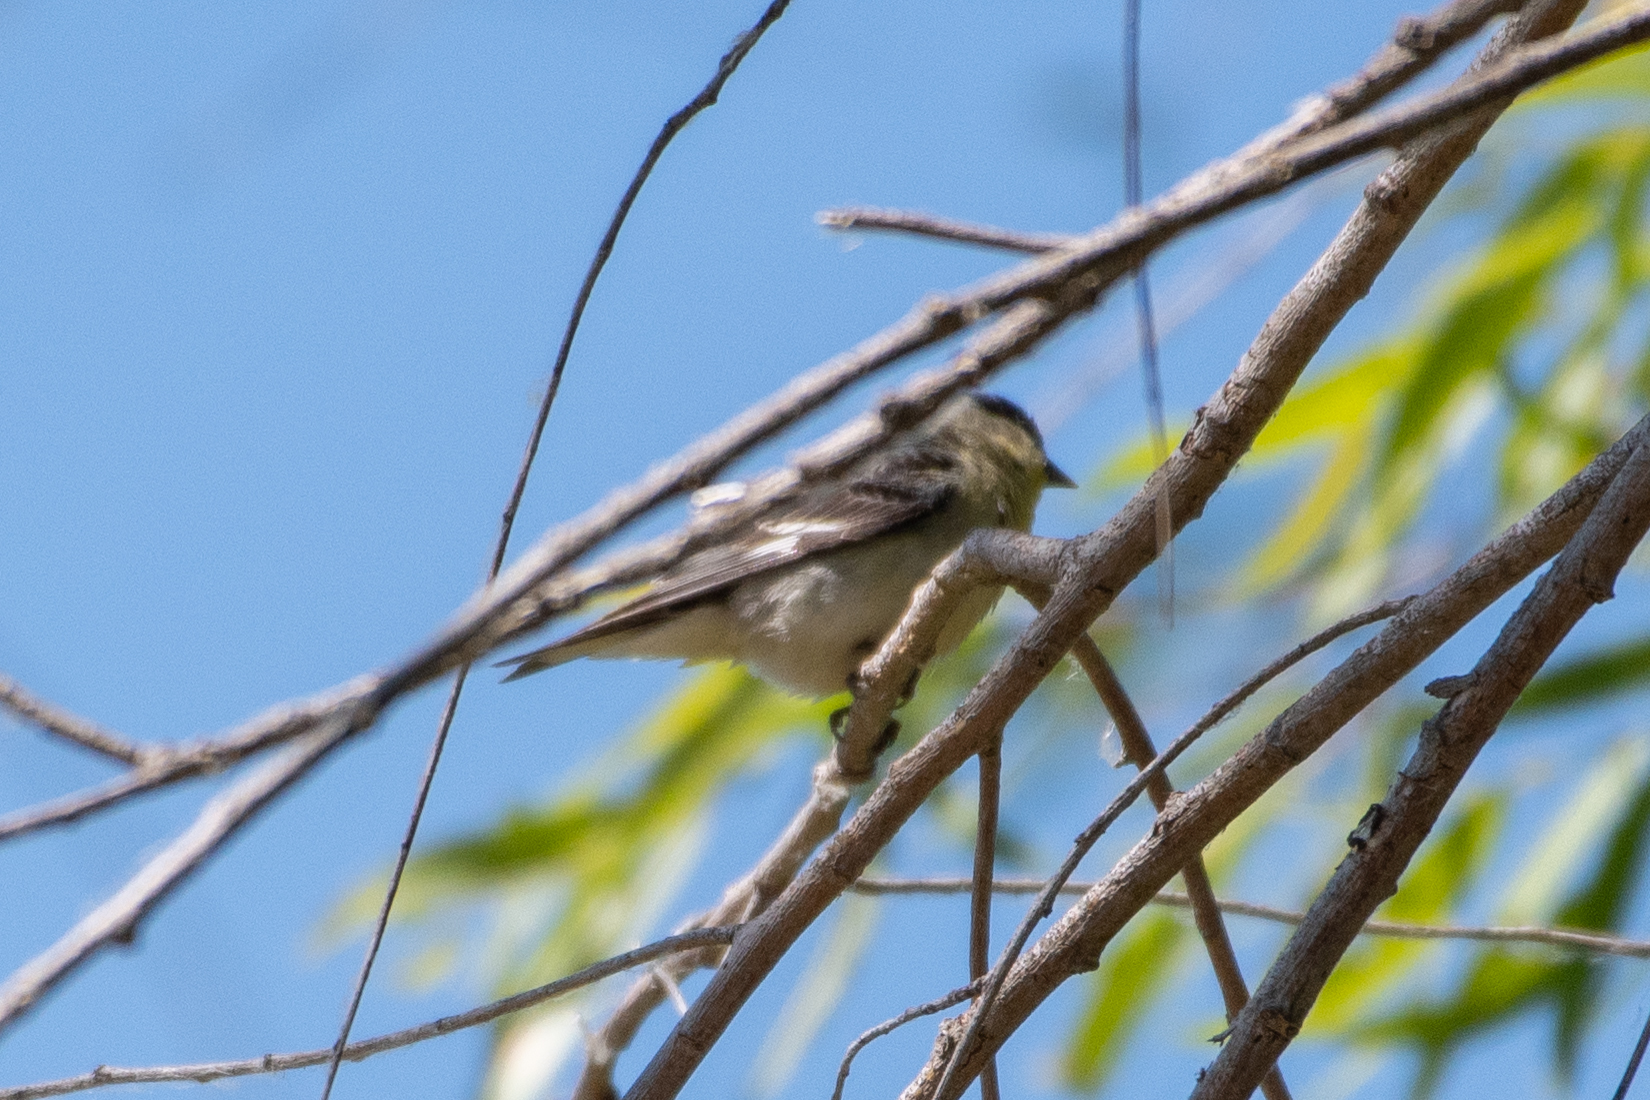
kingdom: Animalia
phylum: Chordata
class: Aves
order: Passeriformes
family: Fringillidae
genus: Spinus
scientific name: Spinus psaltria
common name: Lesser goldfinch
